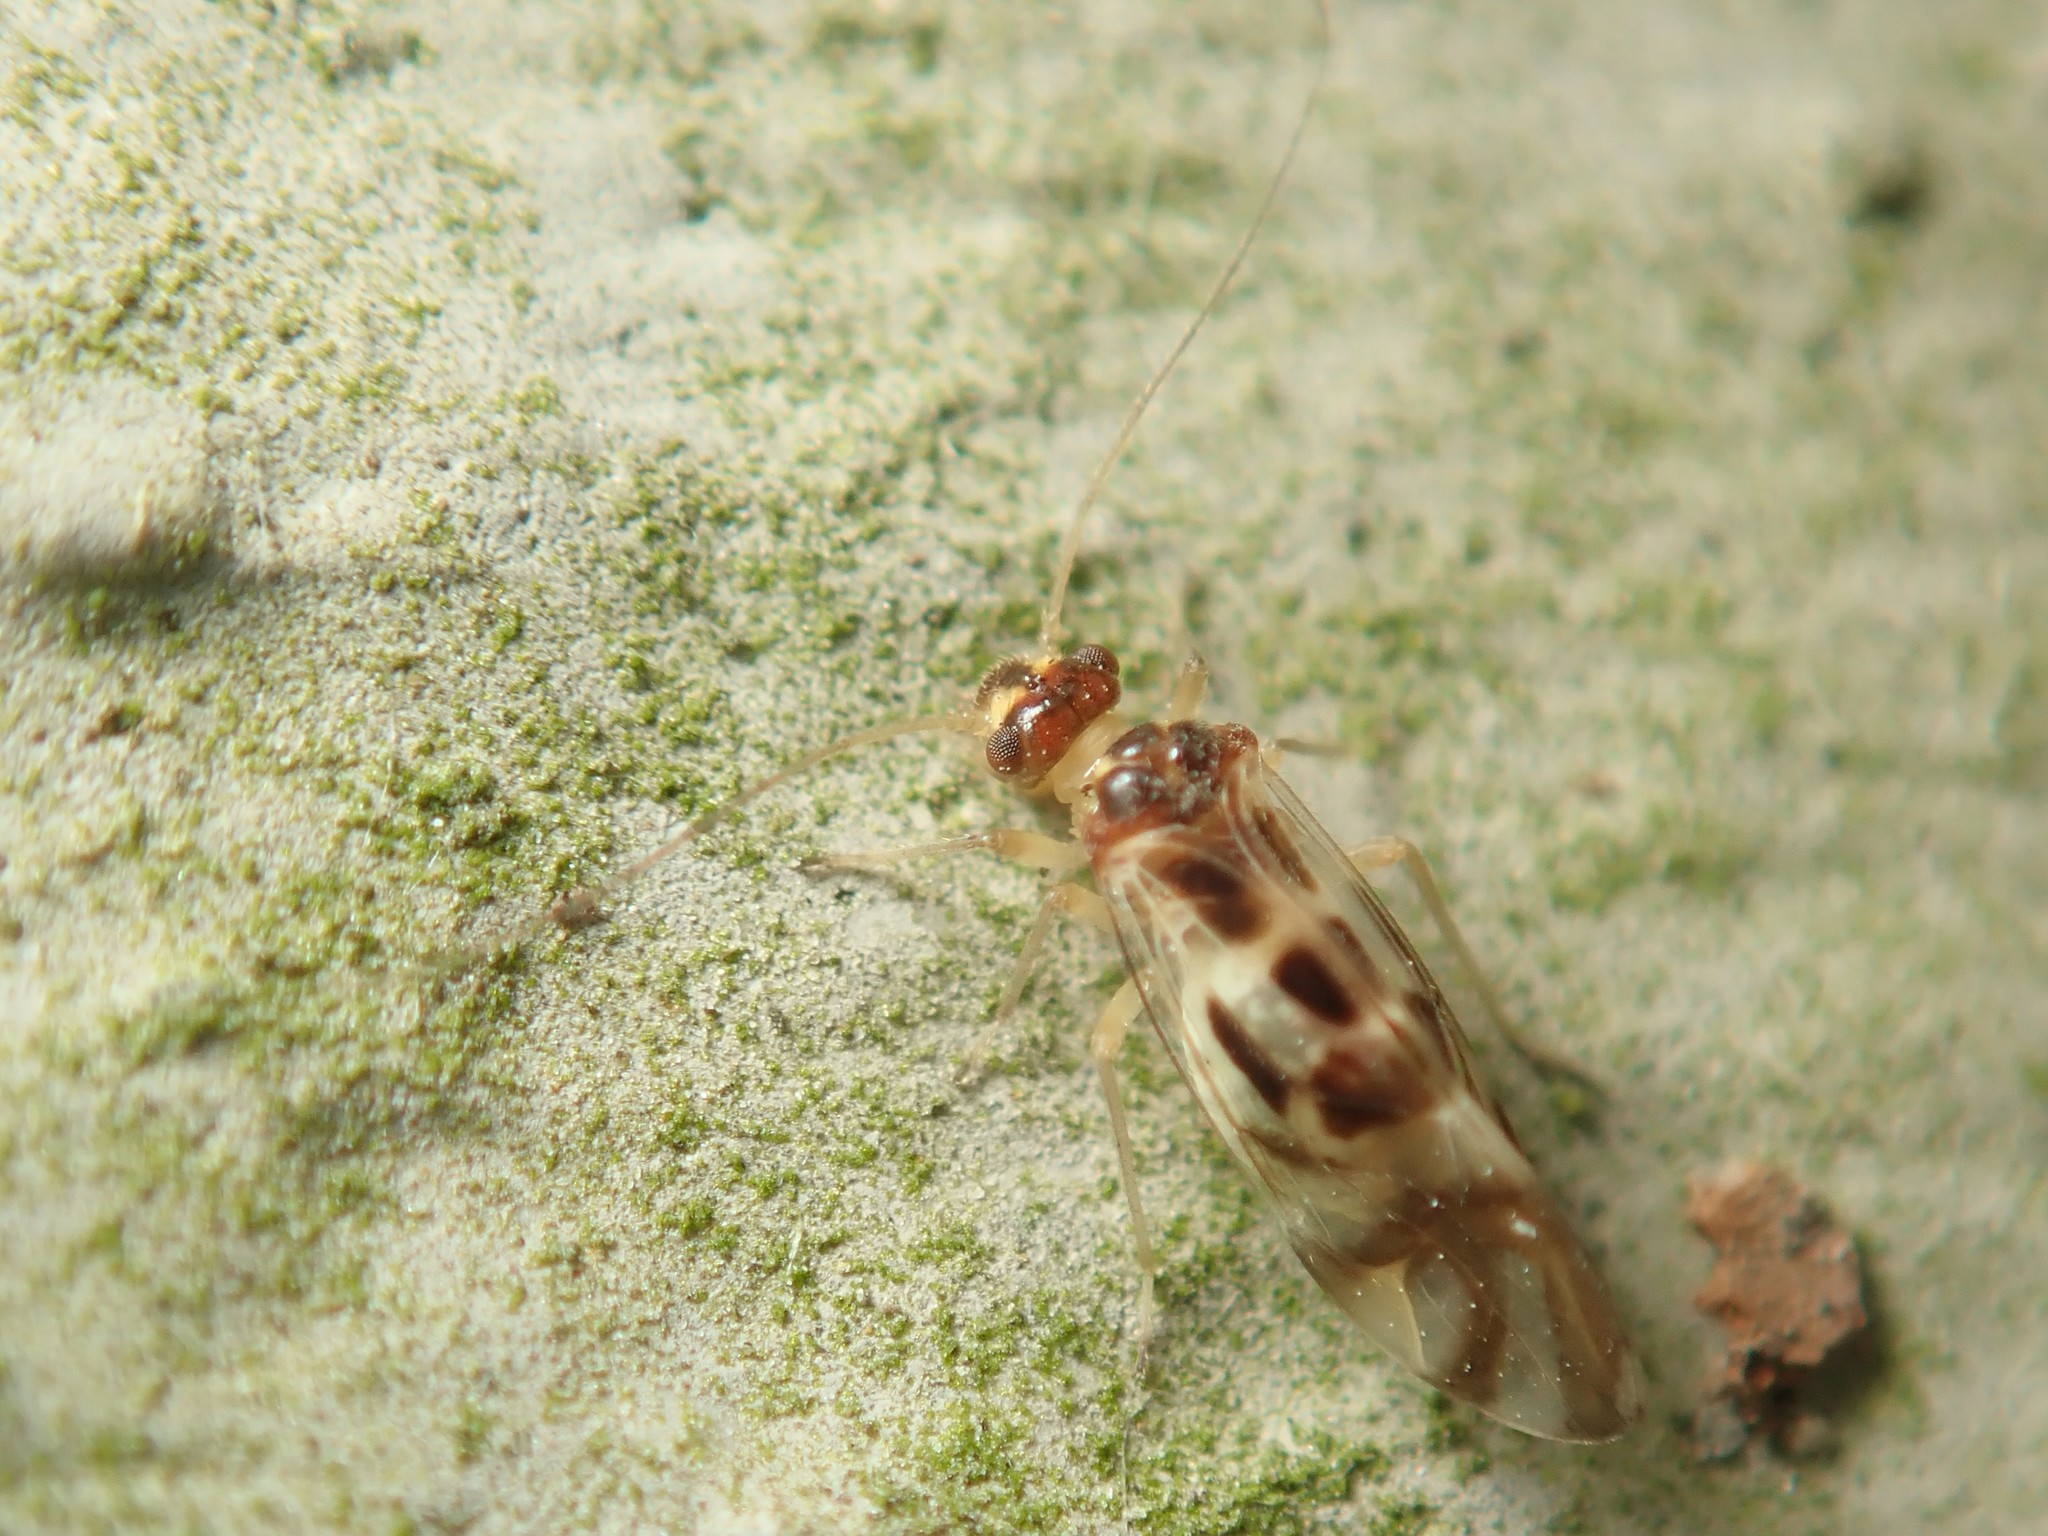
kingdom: Animalia
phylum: Arthropoda
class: Insecta
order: Psocodea
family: Stenopsocidae
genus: Graphopsocus
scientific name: Graphopsocus cruciatus
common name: Lizard bark louse
